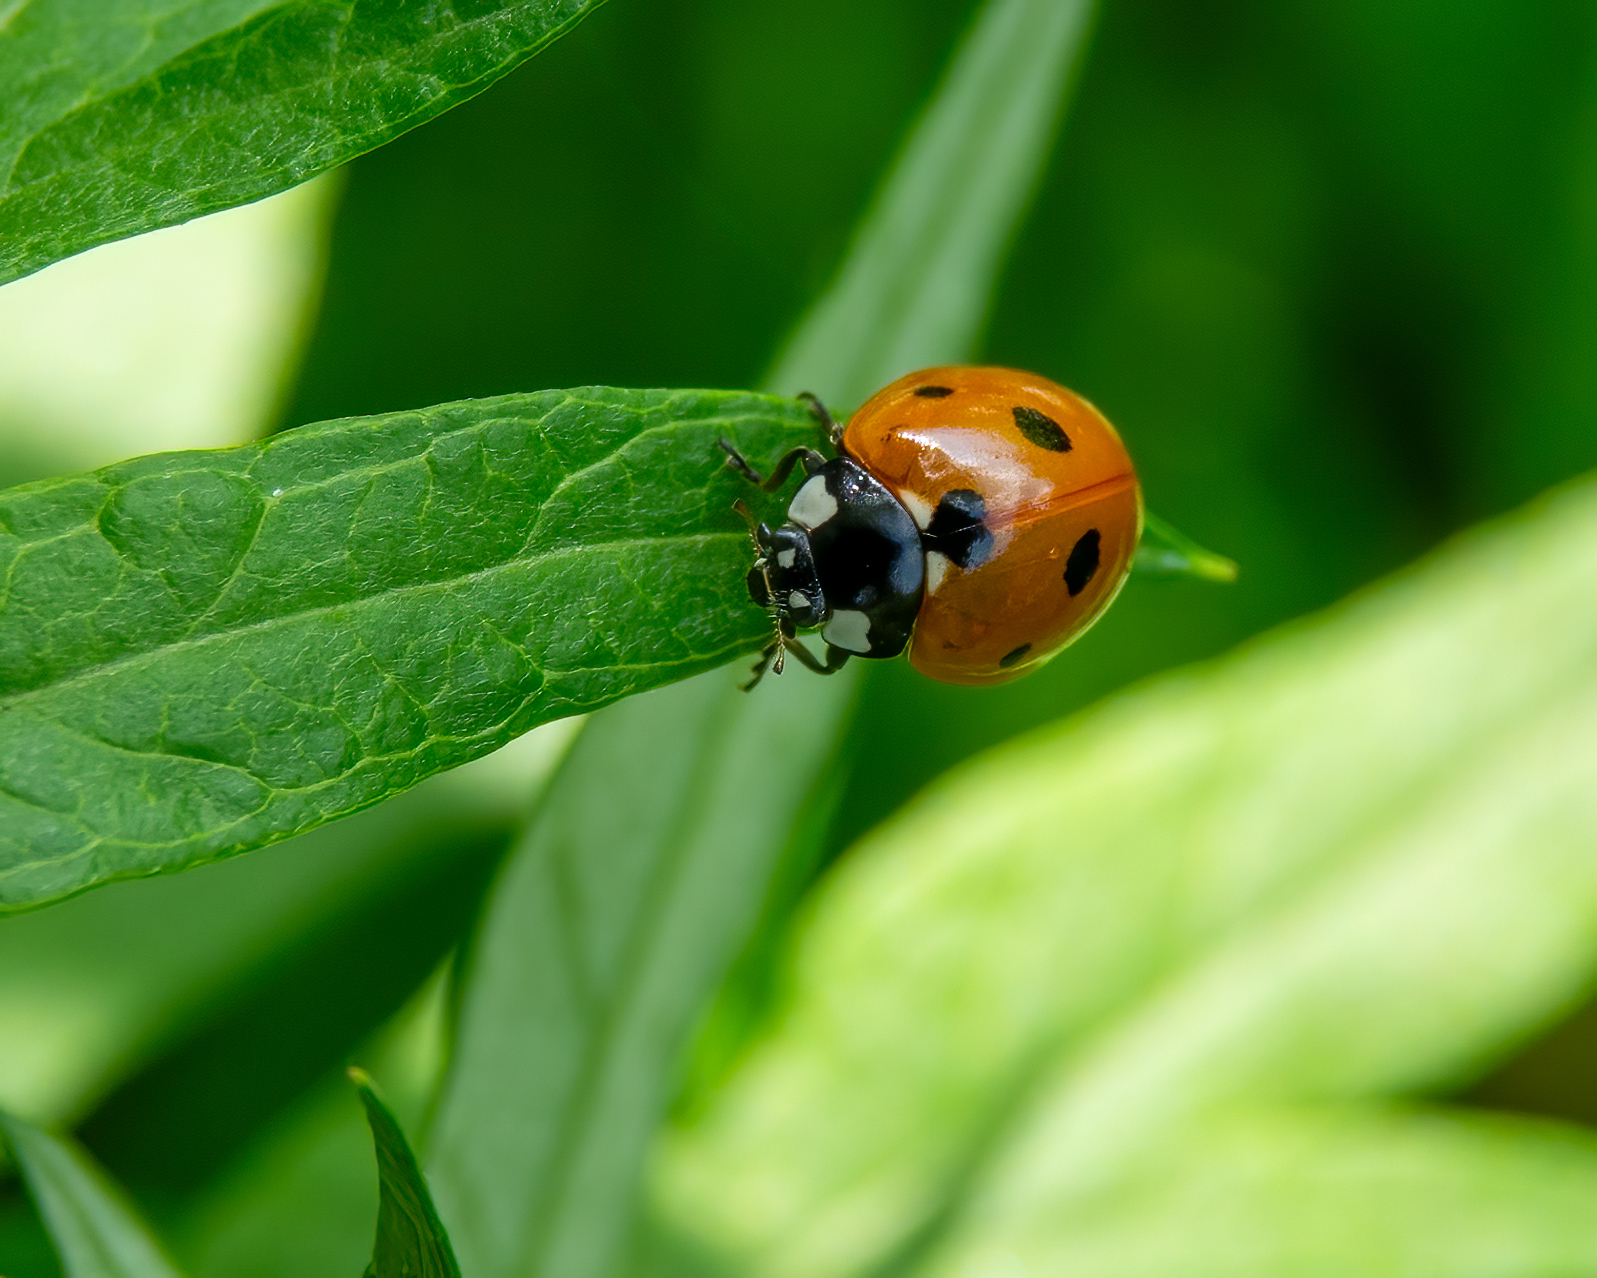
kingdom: Animalia
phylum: Arthropoda
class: Insecta
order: Coleoptera
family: Coccinellidae
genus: Coccinella
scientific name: Coccinella septempunctata
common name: Sevenspotted lady beetle
